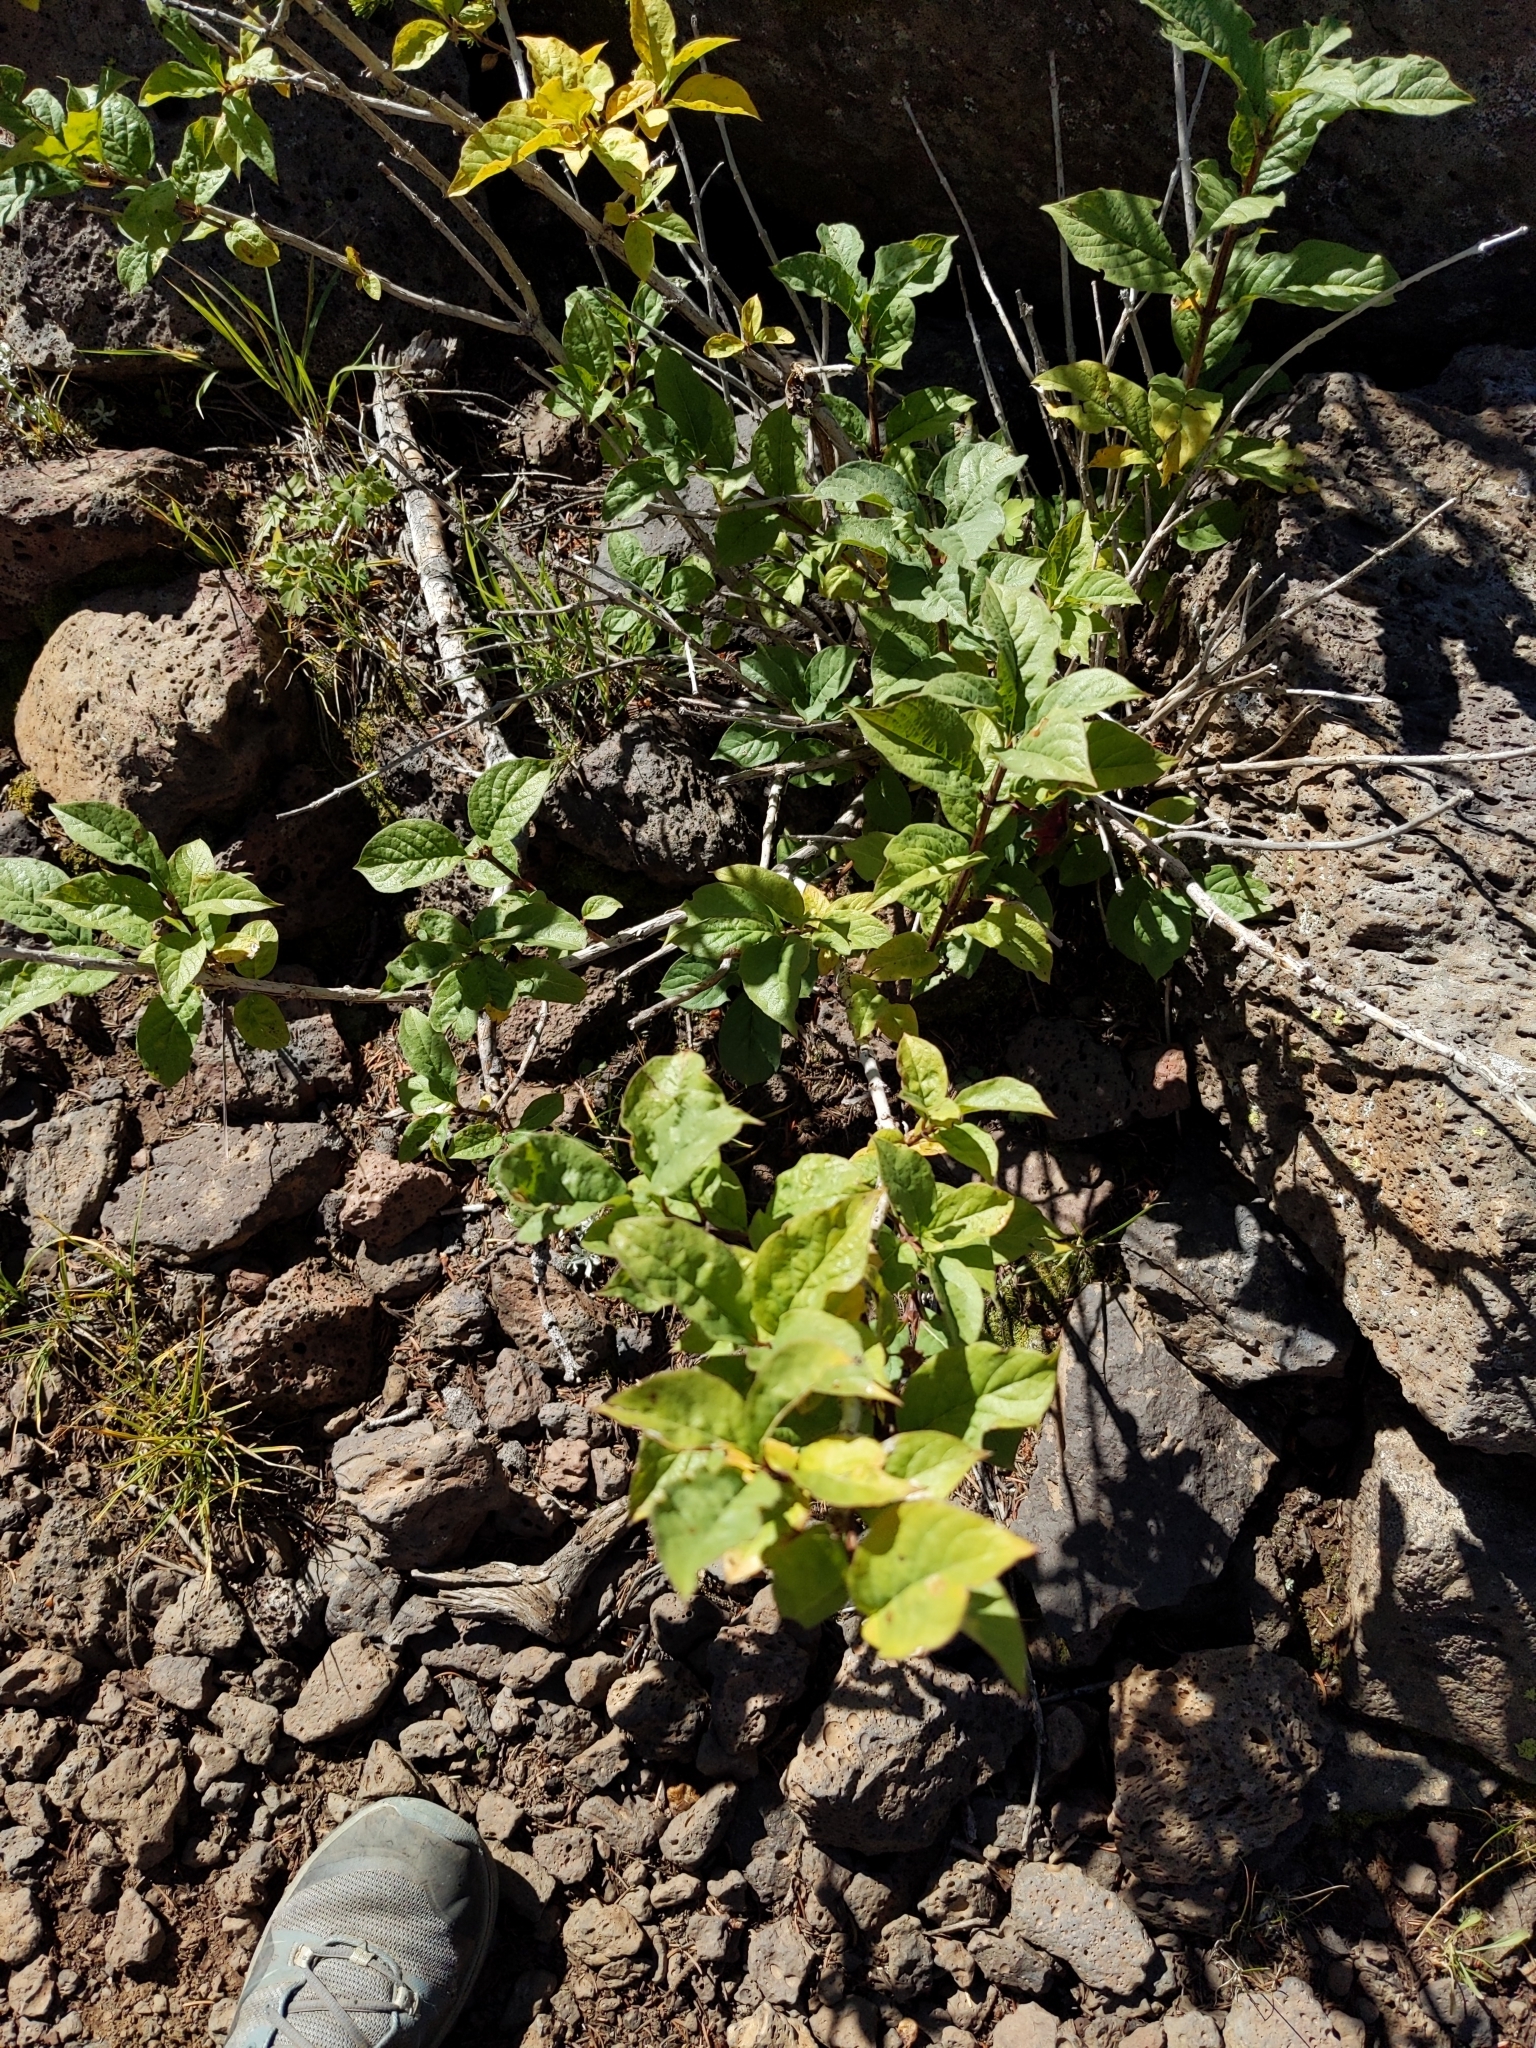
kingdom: Plantae
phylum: Tracheophyta
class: Magnoliopsida
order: Dipsacales
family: Caprifoliaceae
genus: Lonicera
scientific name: Lonicera involucrata
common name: Californian honeysuckle
